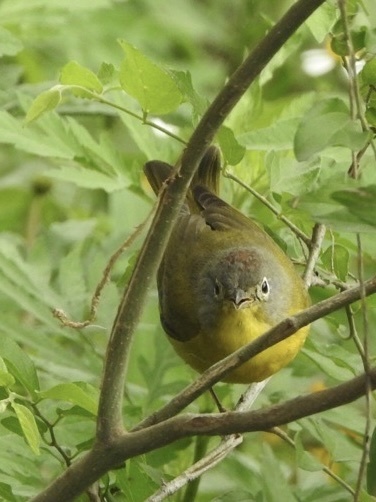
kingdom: Animalia
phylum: Chordata
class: Aves
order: Passeriformes
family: Parulidae
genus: Leiothlypis
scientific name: Leiothlypis ruficapilla
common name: Nashville warbler
